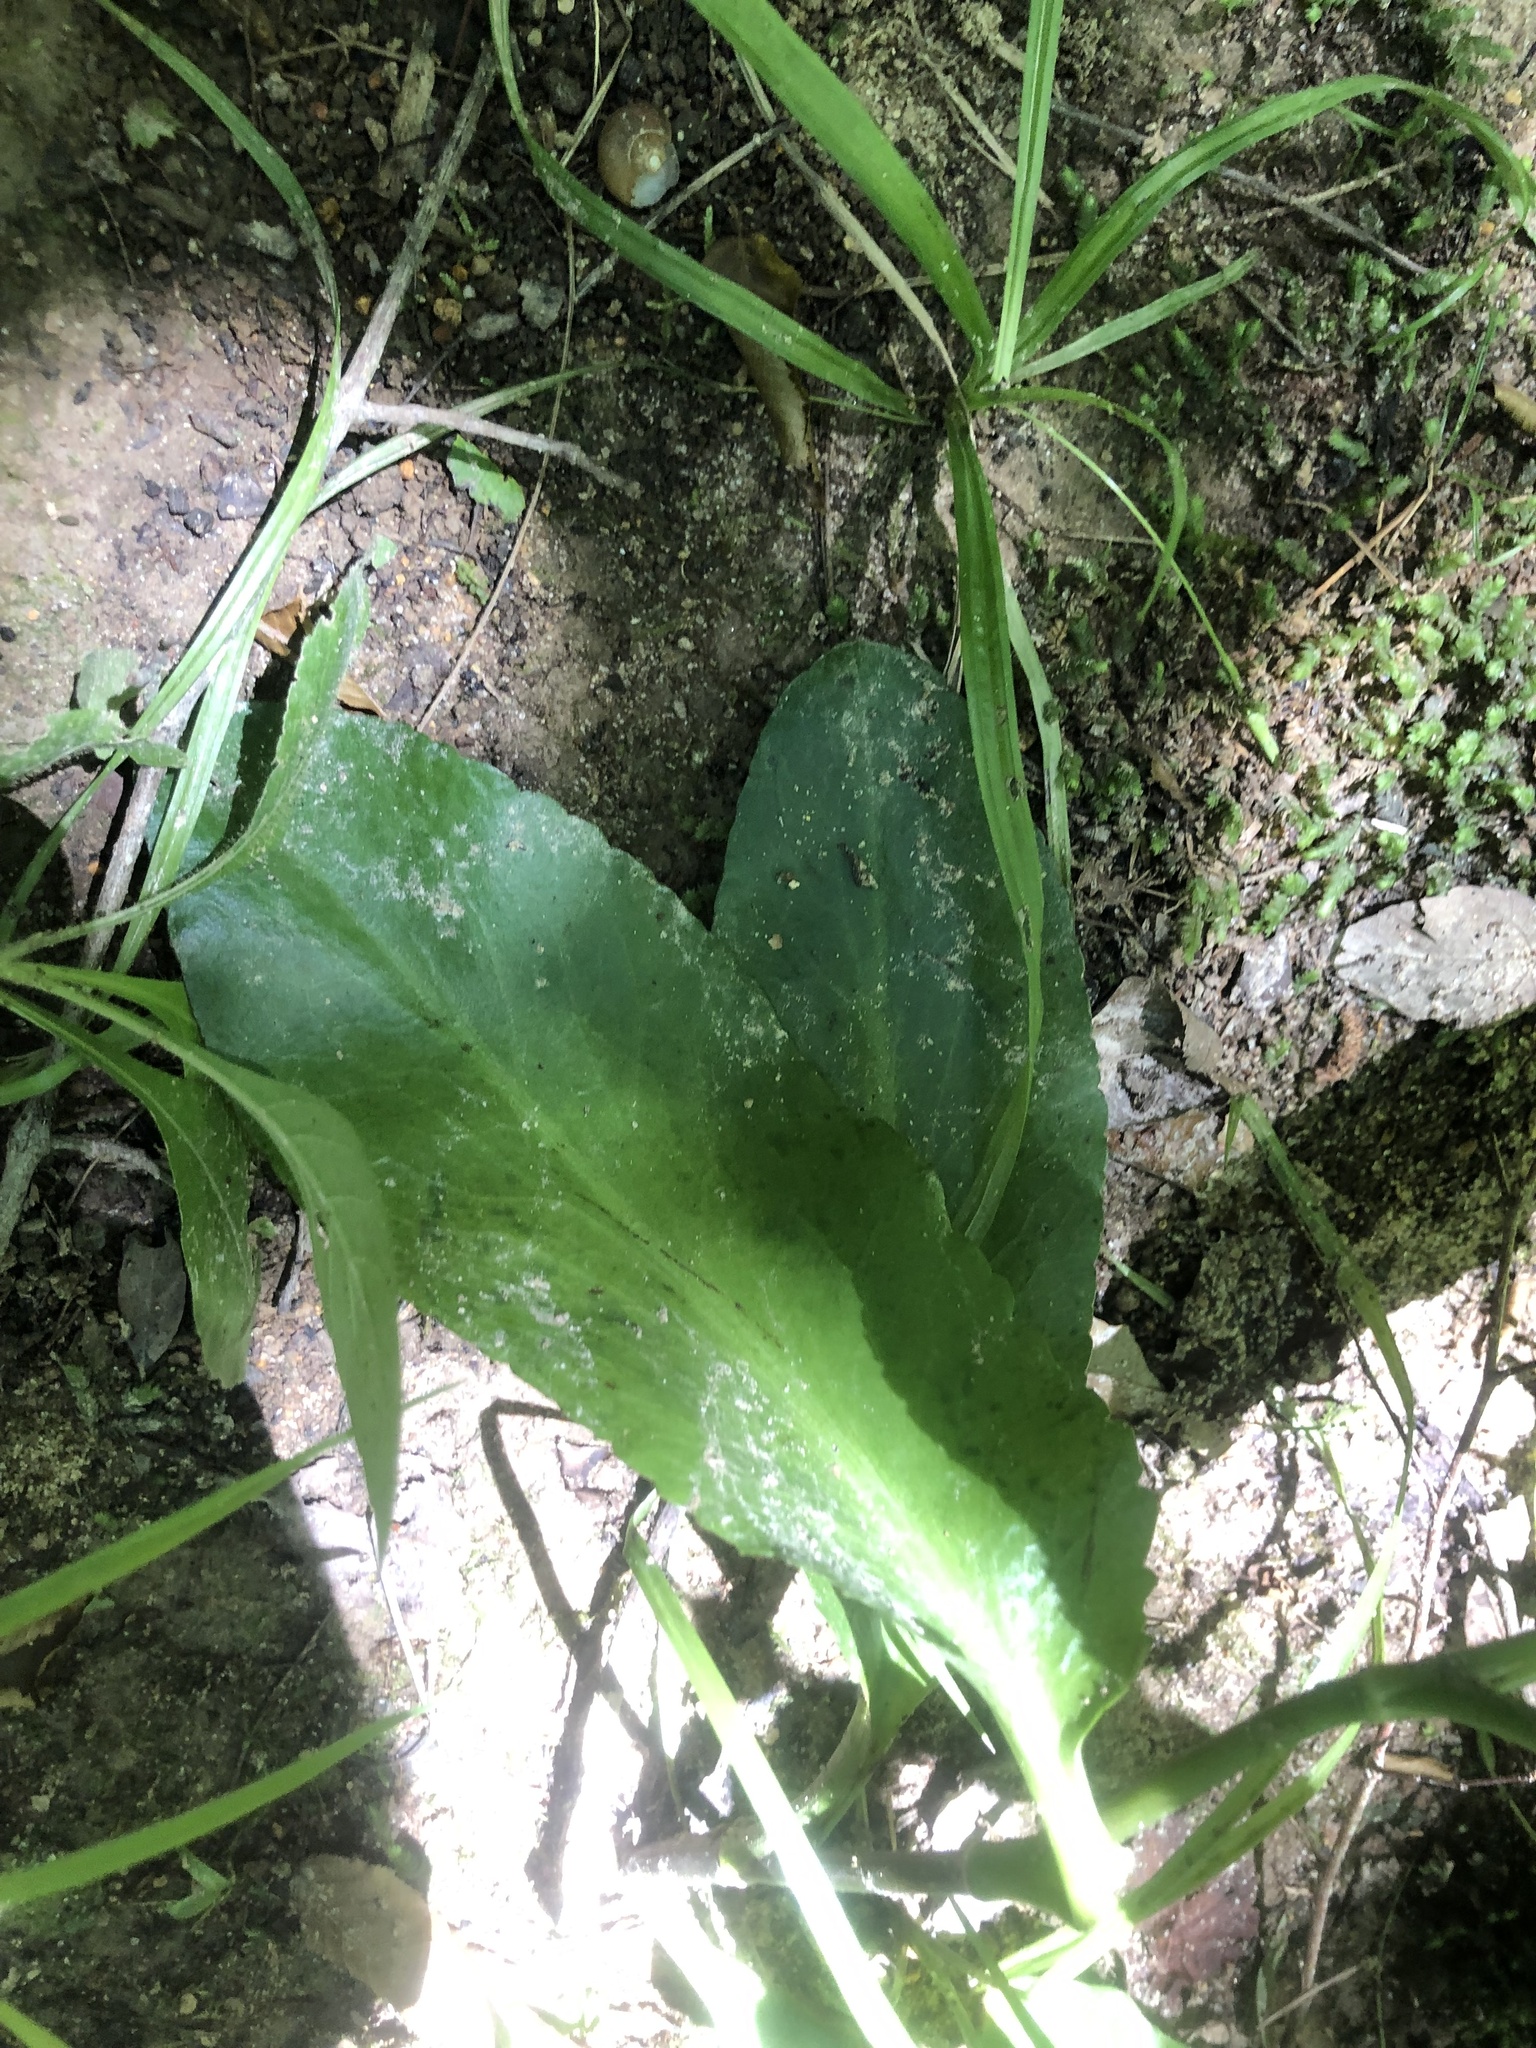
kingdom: Plantae
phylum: Tracheophyta
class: Magnoliopsida
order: Apiales
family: Apiaceae
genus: Eryngium
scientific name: Eryngium integrifolium
